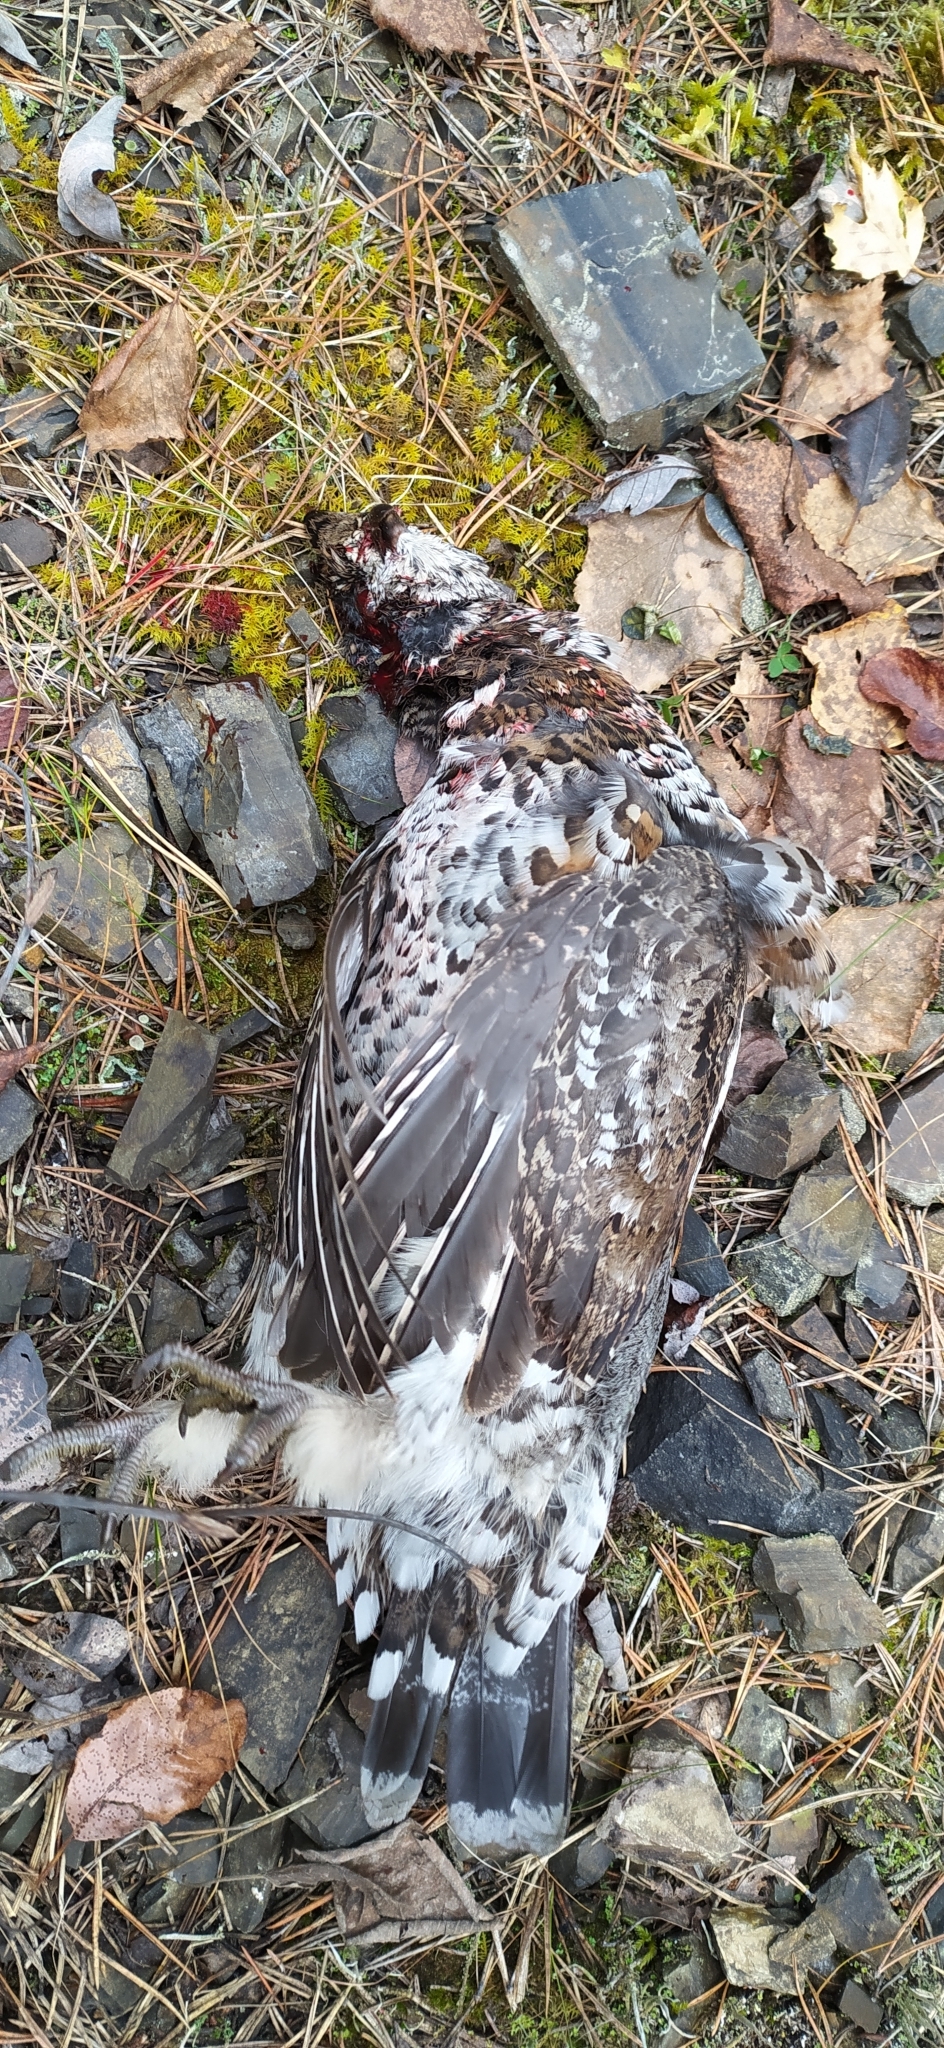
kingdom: Animalia
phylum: Chordata
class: Aves
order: Galliformes
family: Phasianidae
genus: Tetrastes
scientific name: Tetrastes bonasia
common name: Hazel grouse
